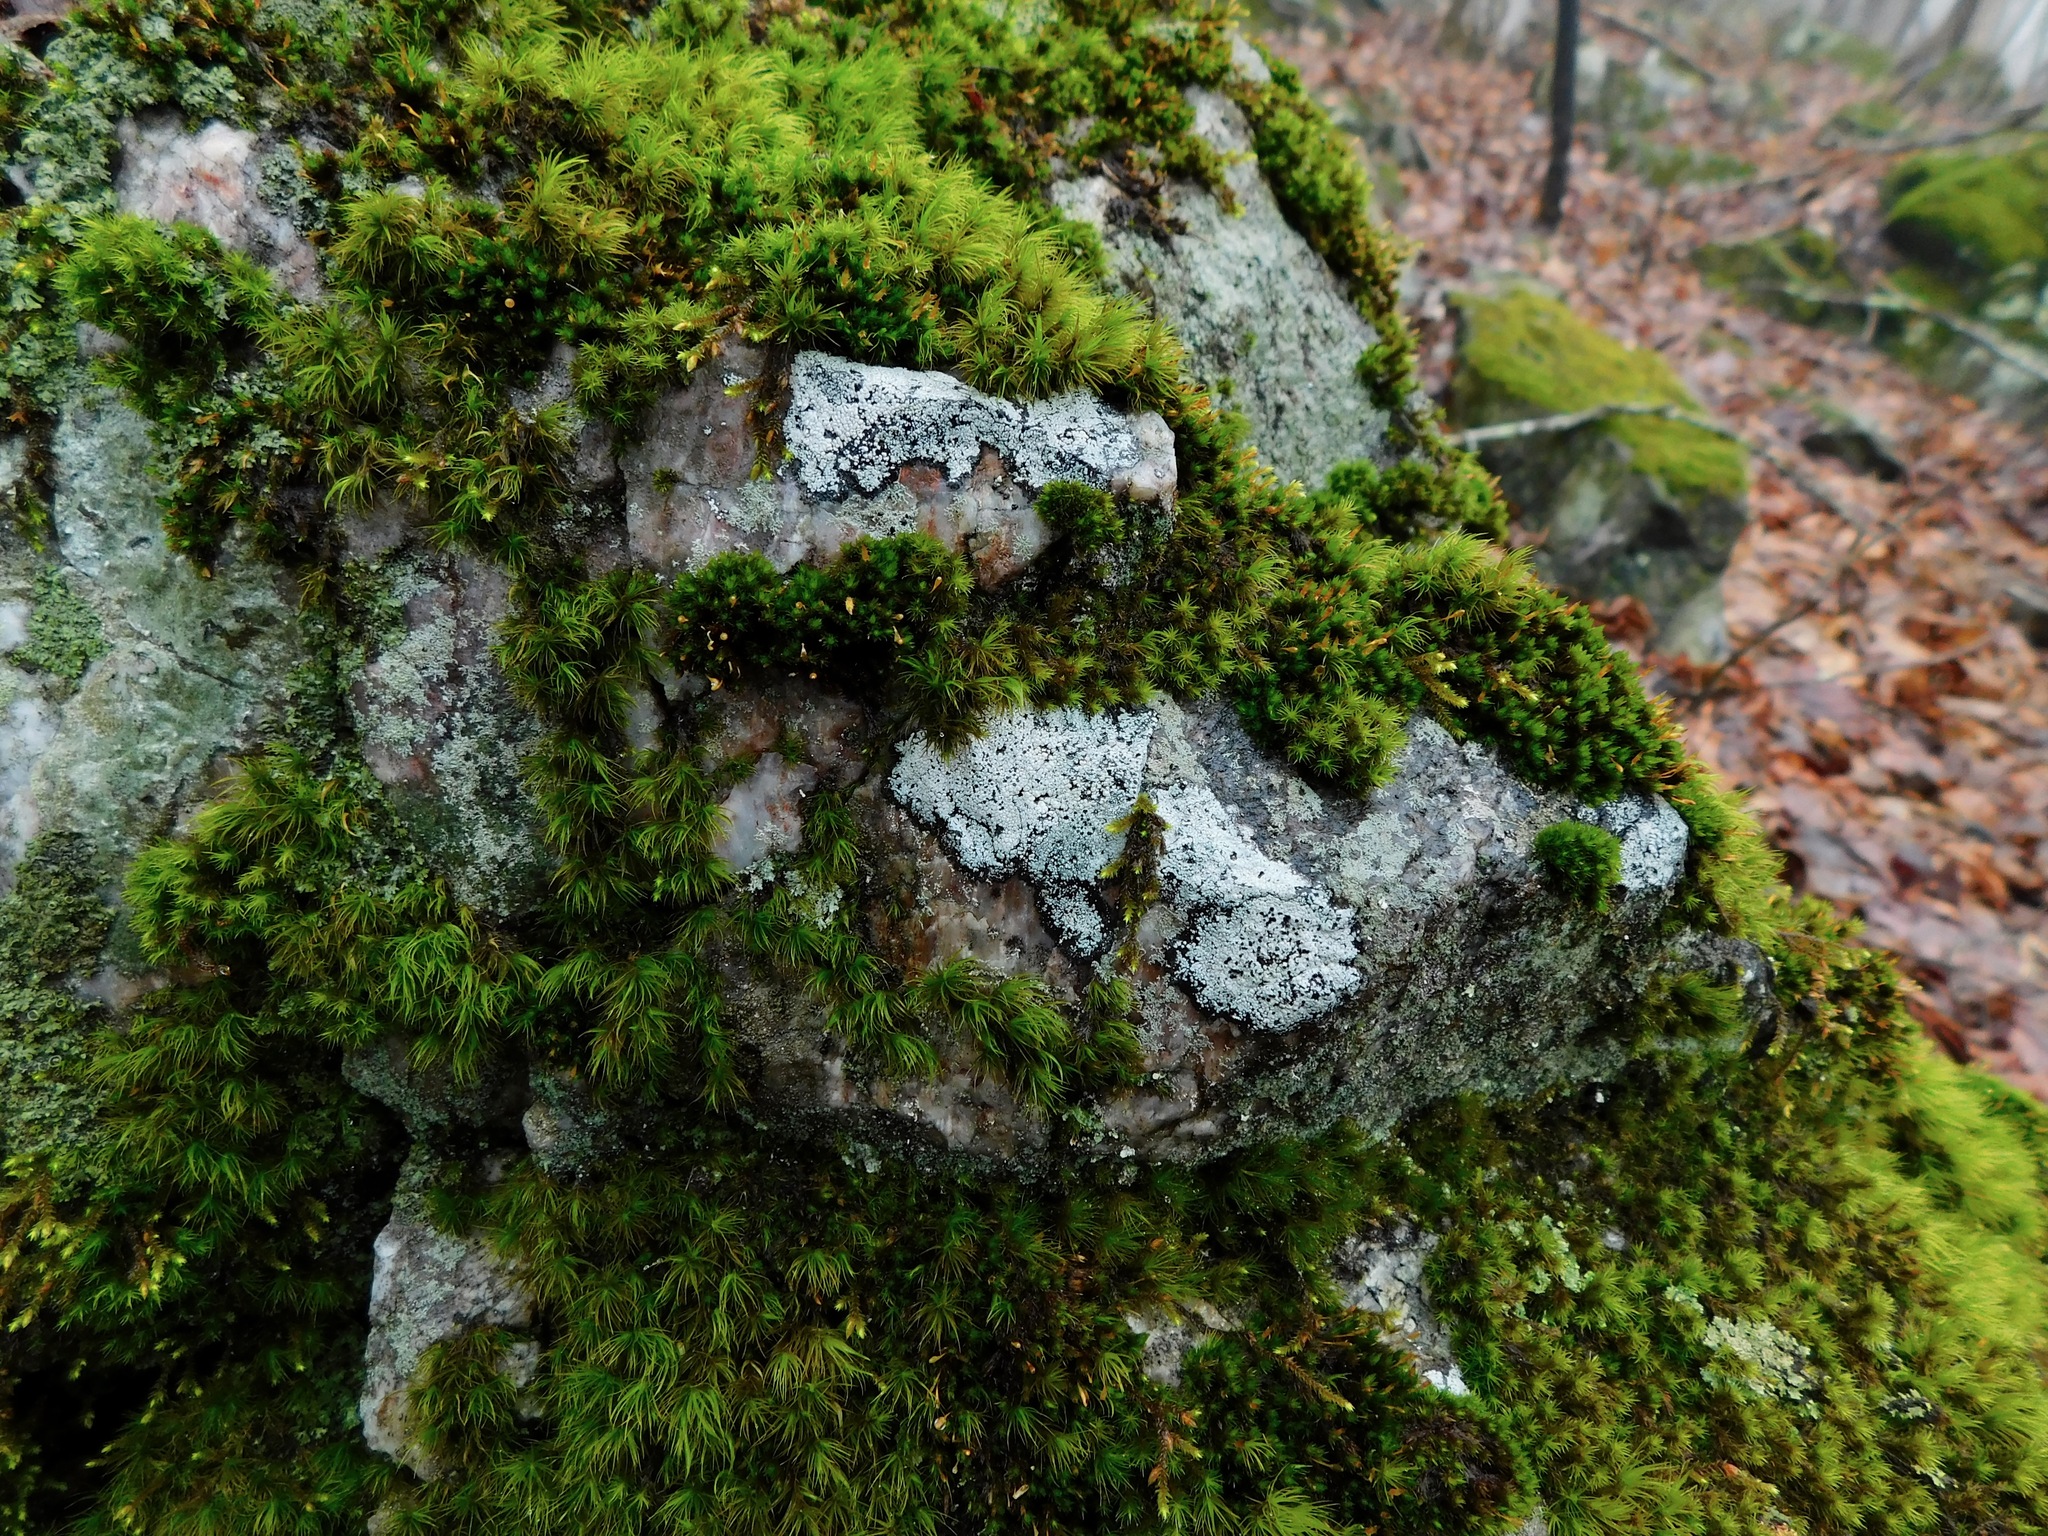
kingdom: Fungi
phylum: Ascomycota
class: Lecanoromycetes
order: Caliciales
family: Caliciaceae
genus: Buellia
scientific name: Buellia spuria
